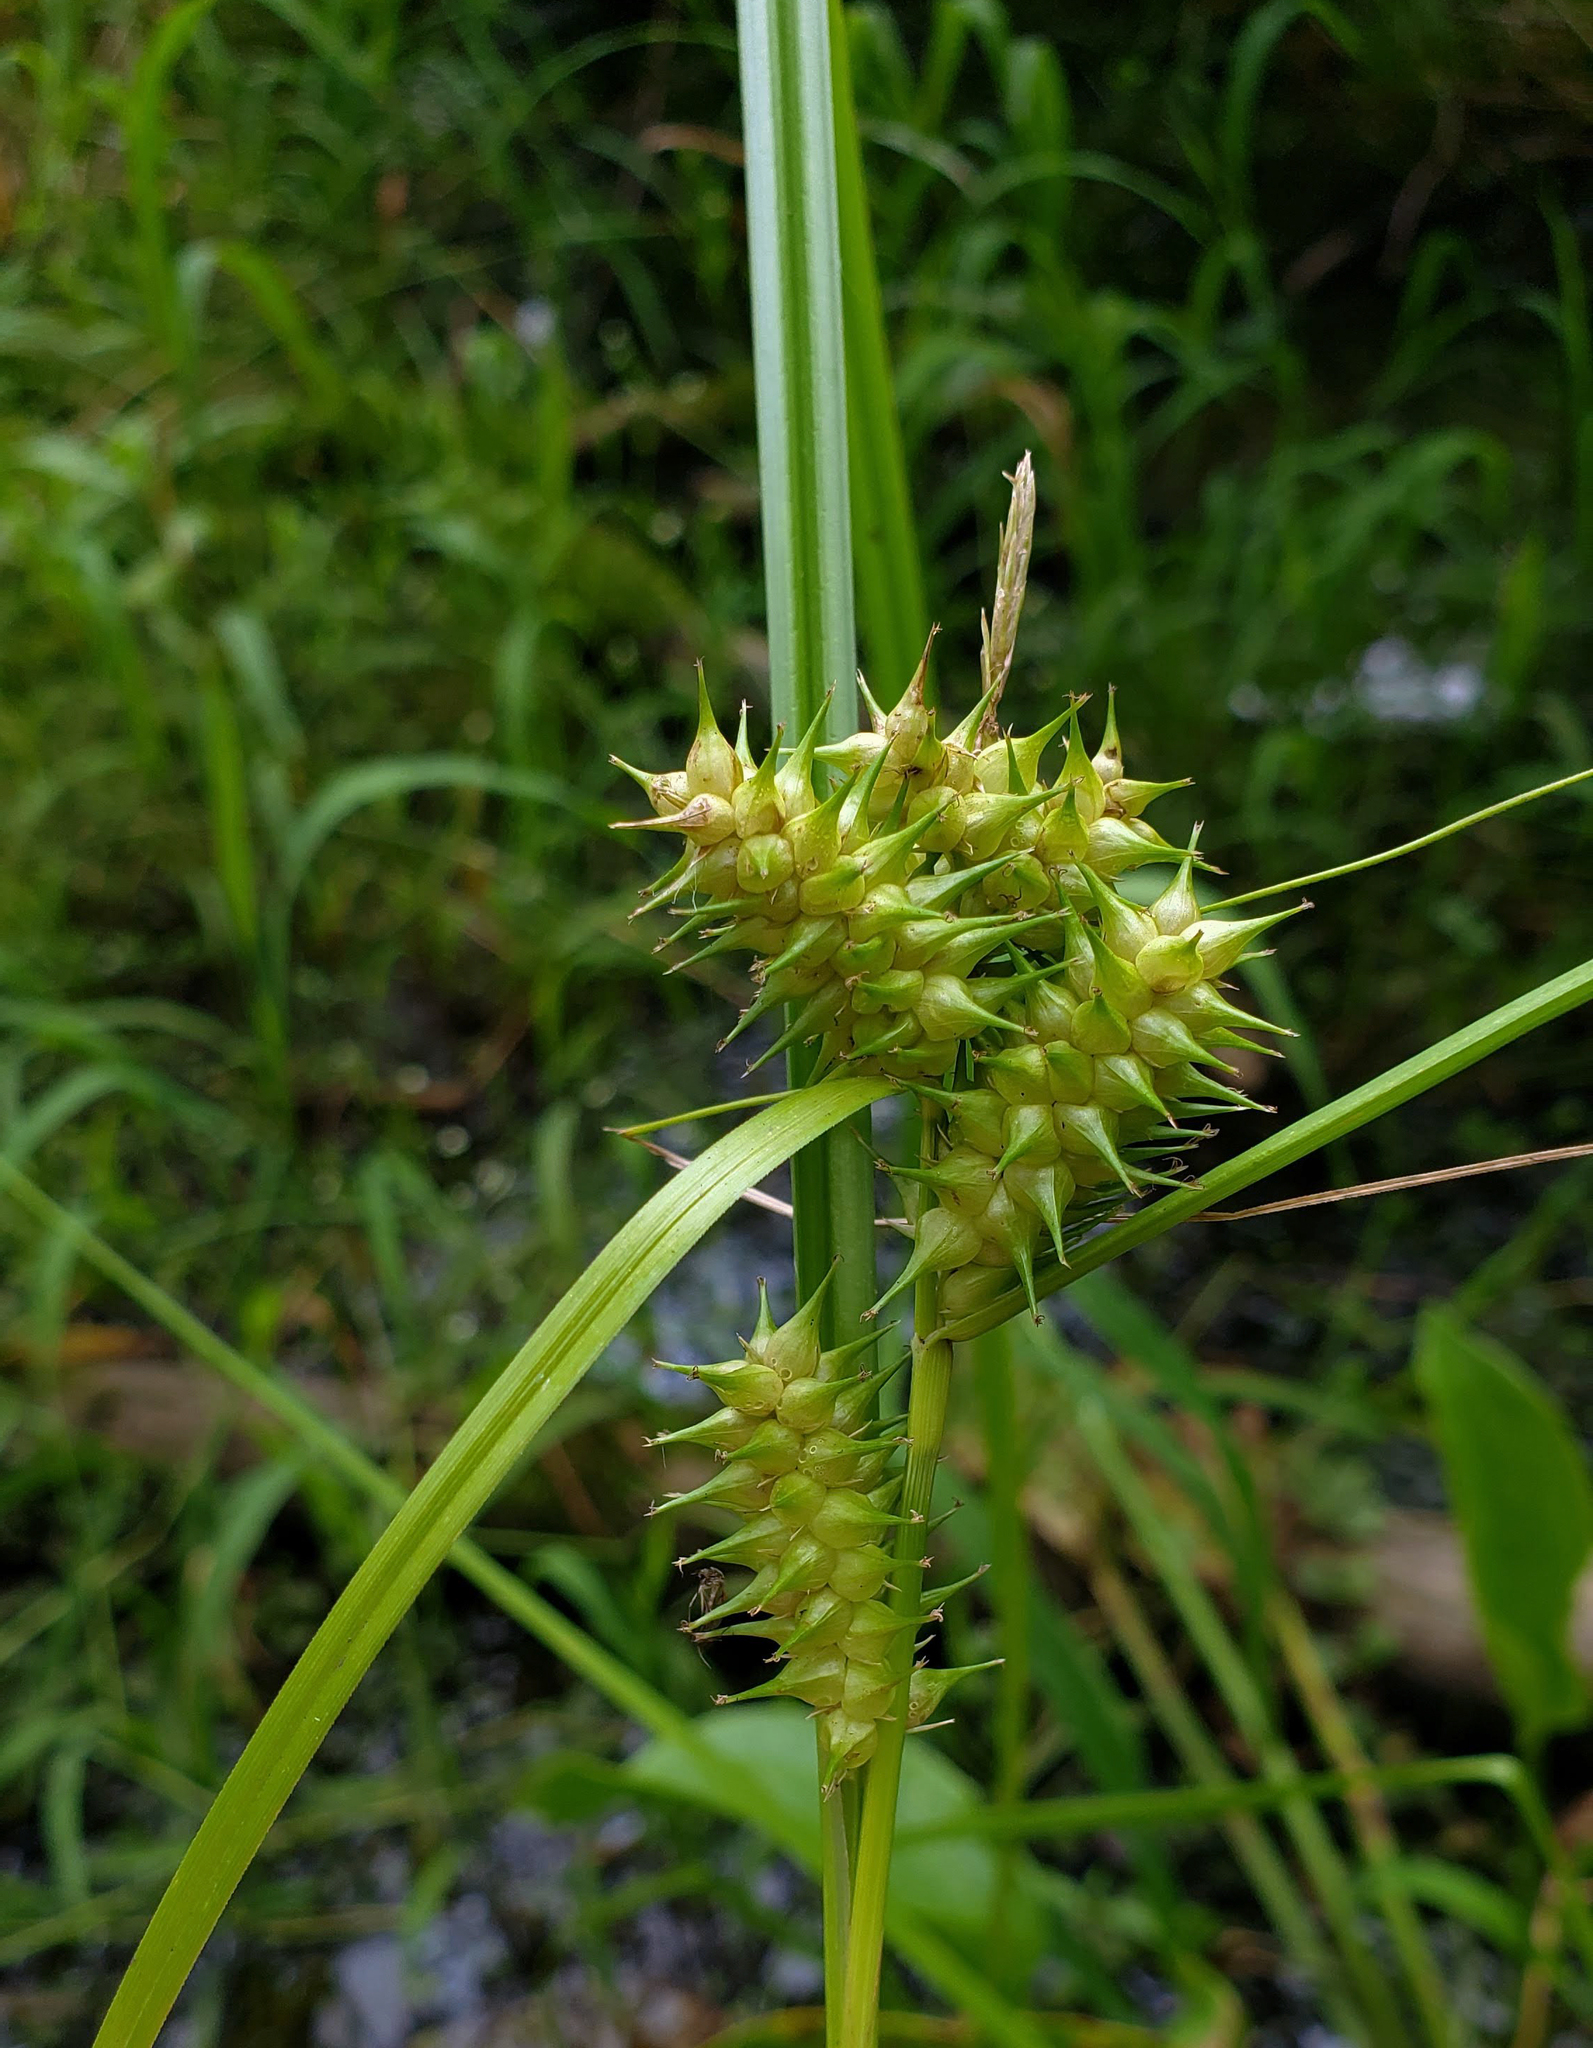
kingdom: Plantae
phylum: Tracheophyta
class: Liliopsida
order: Poales
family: Cyperaceae
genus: Carex
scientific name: Carex retrorsa
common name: Knot-sheath sedge
